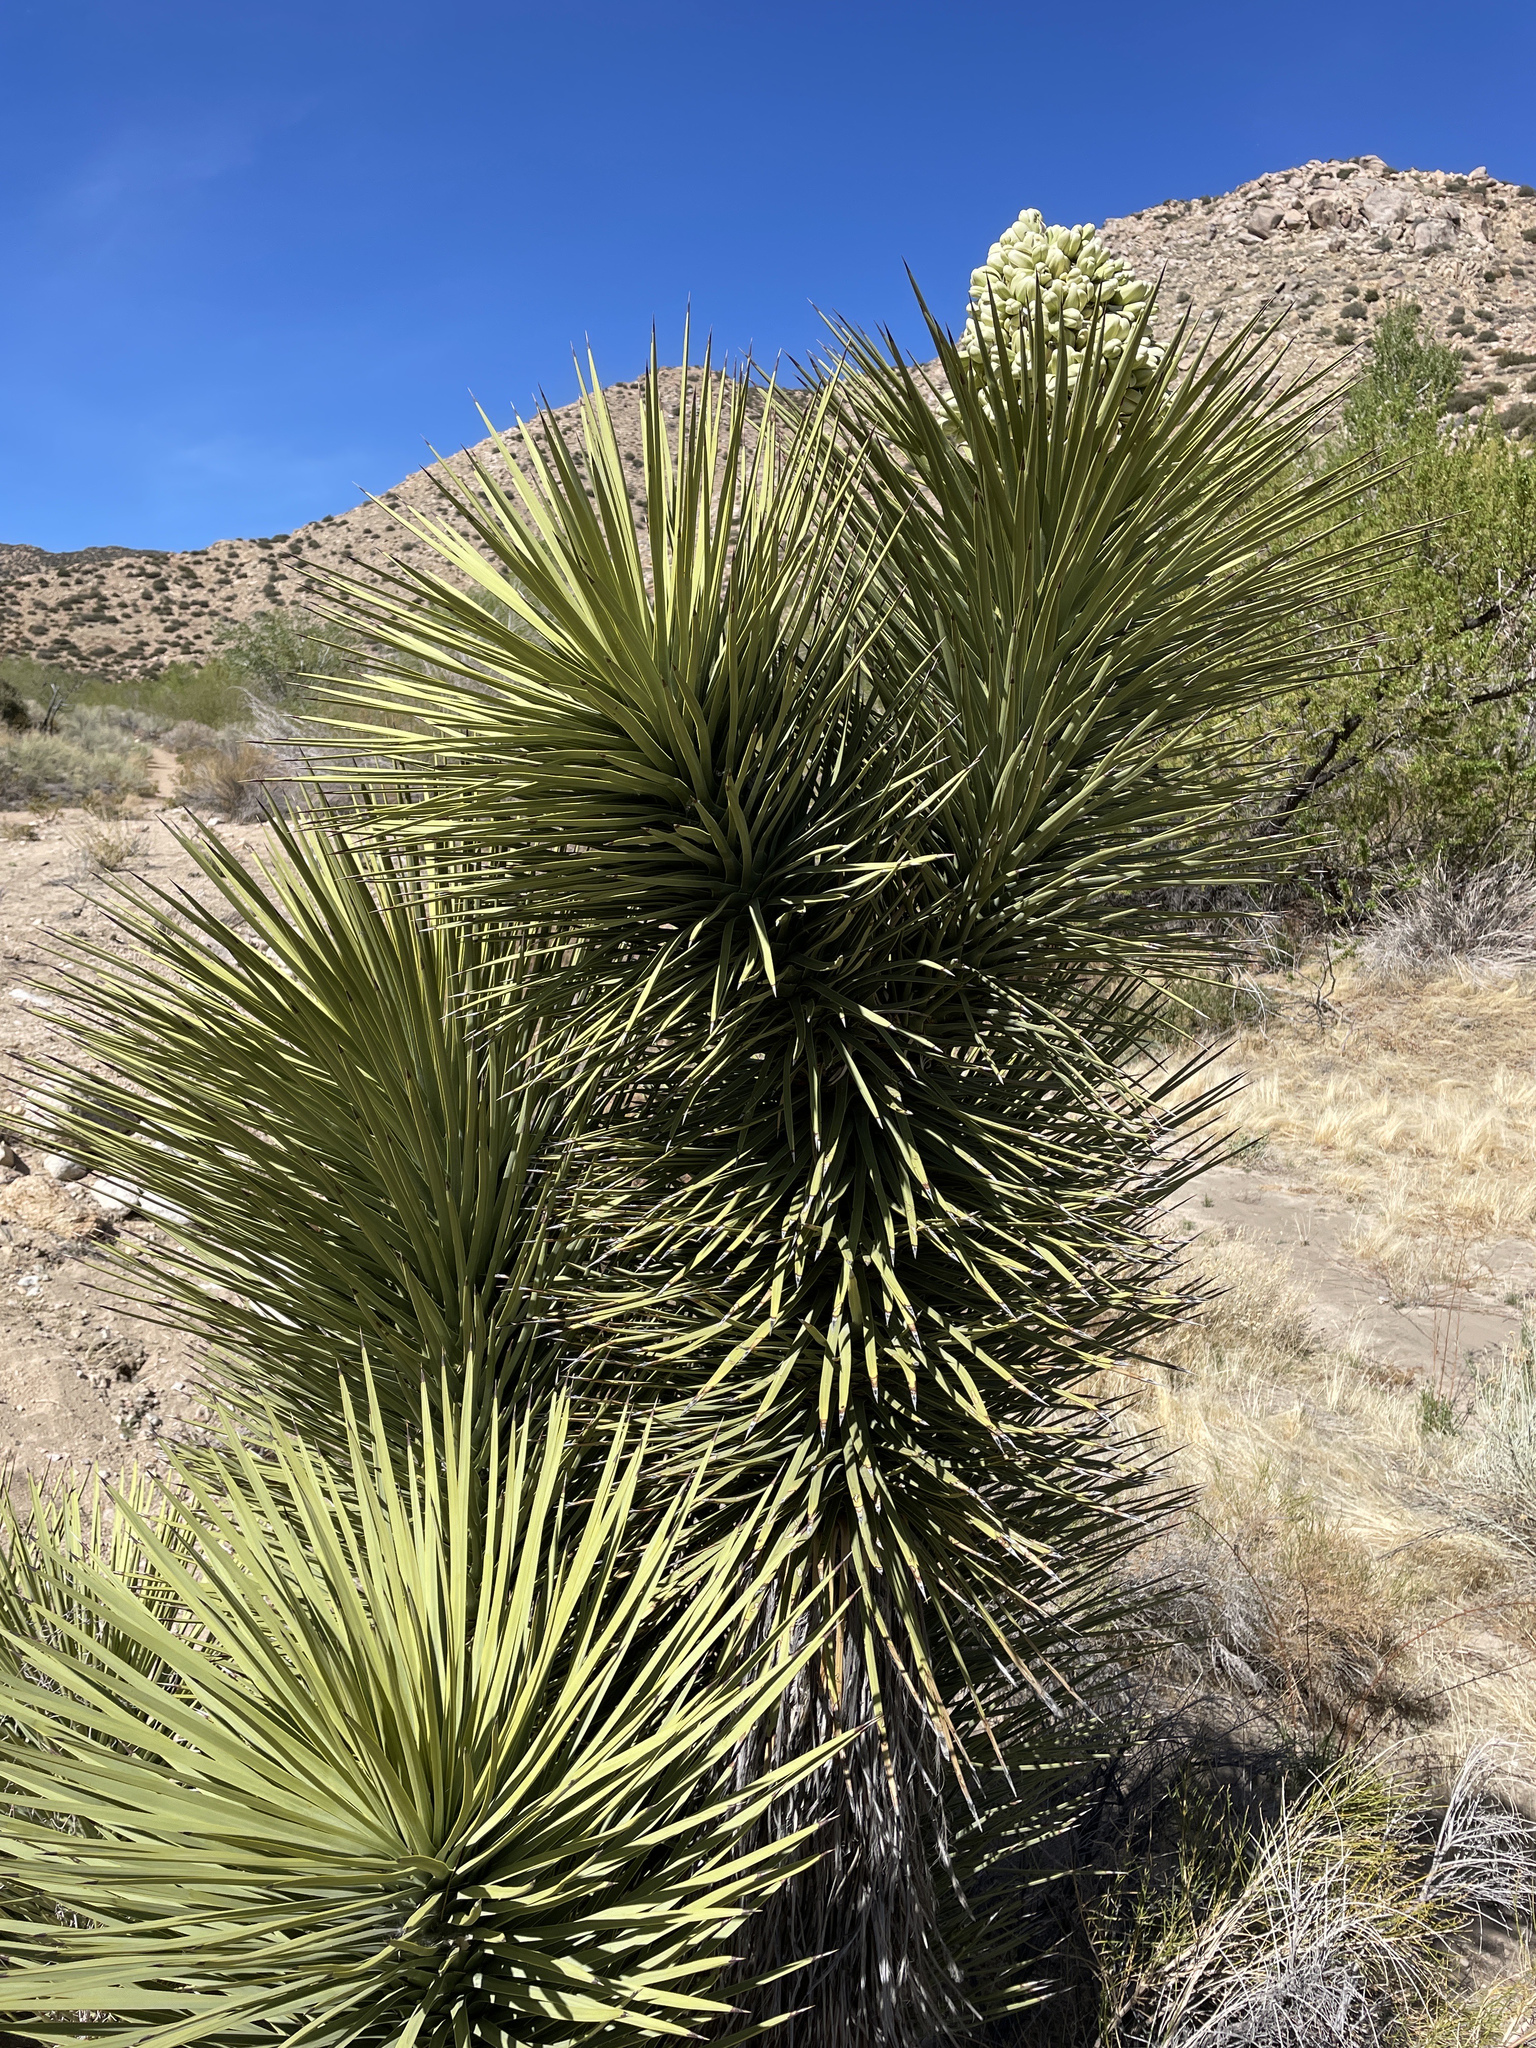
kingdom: Plantae
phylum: Tracheophyta
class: Liliopsida
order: Asparagales
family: Asparagaceae
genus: Yucca
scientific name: Yucca brevifolia
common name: Joshua tree
